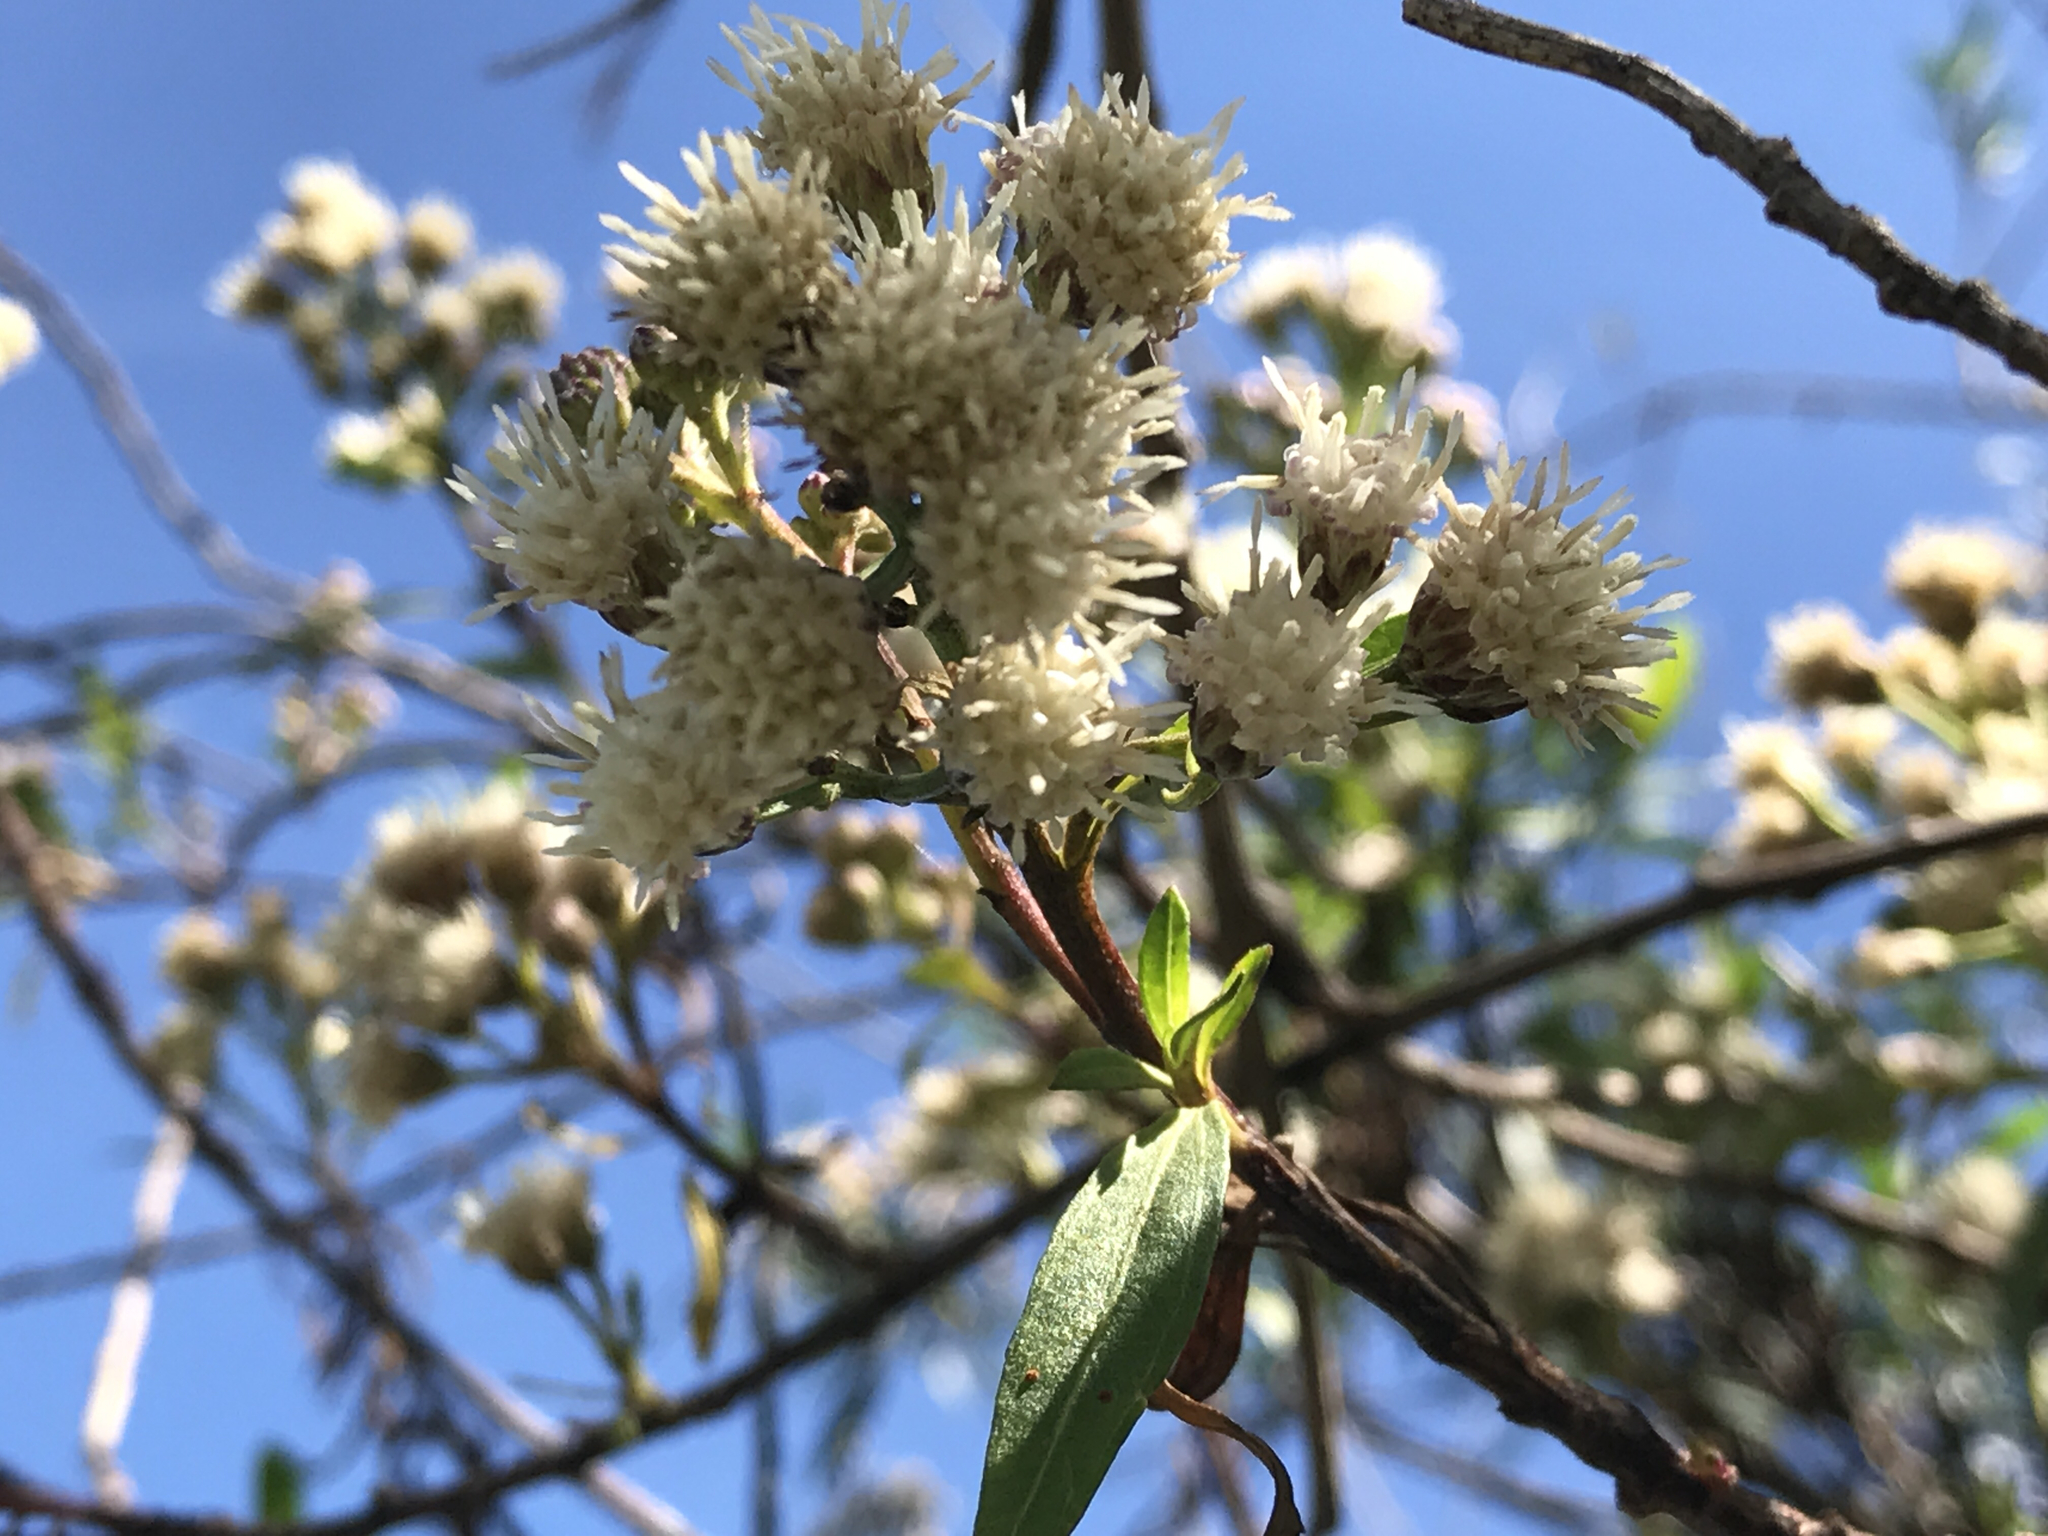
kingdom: Plantae
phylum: Tracheophyta
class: Magnoliopsida
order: Asterales
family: Asteraceae
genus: Baccharis
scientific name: Baccharis salicifolia
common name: Sticky baccharis
